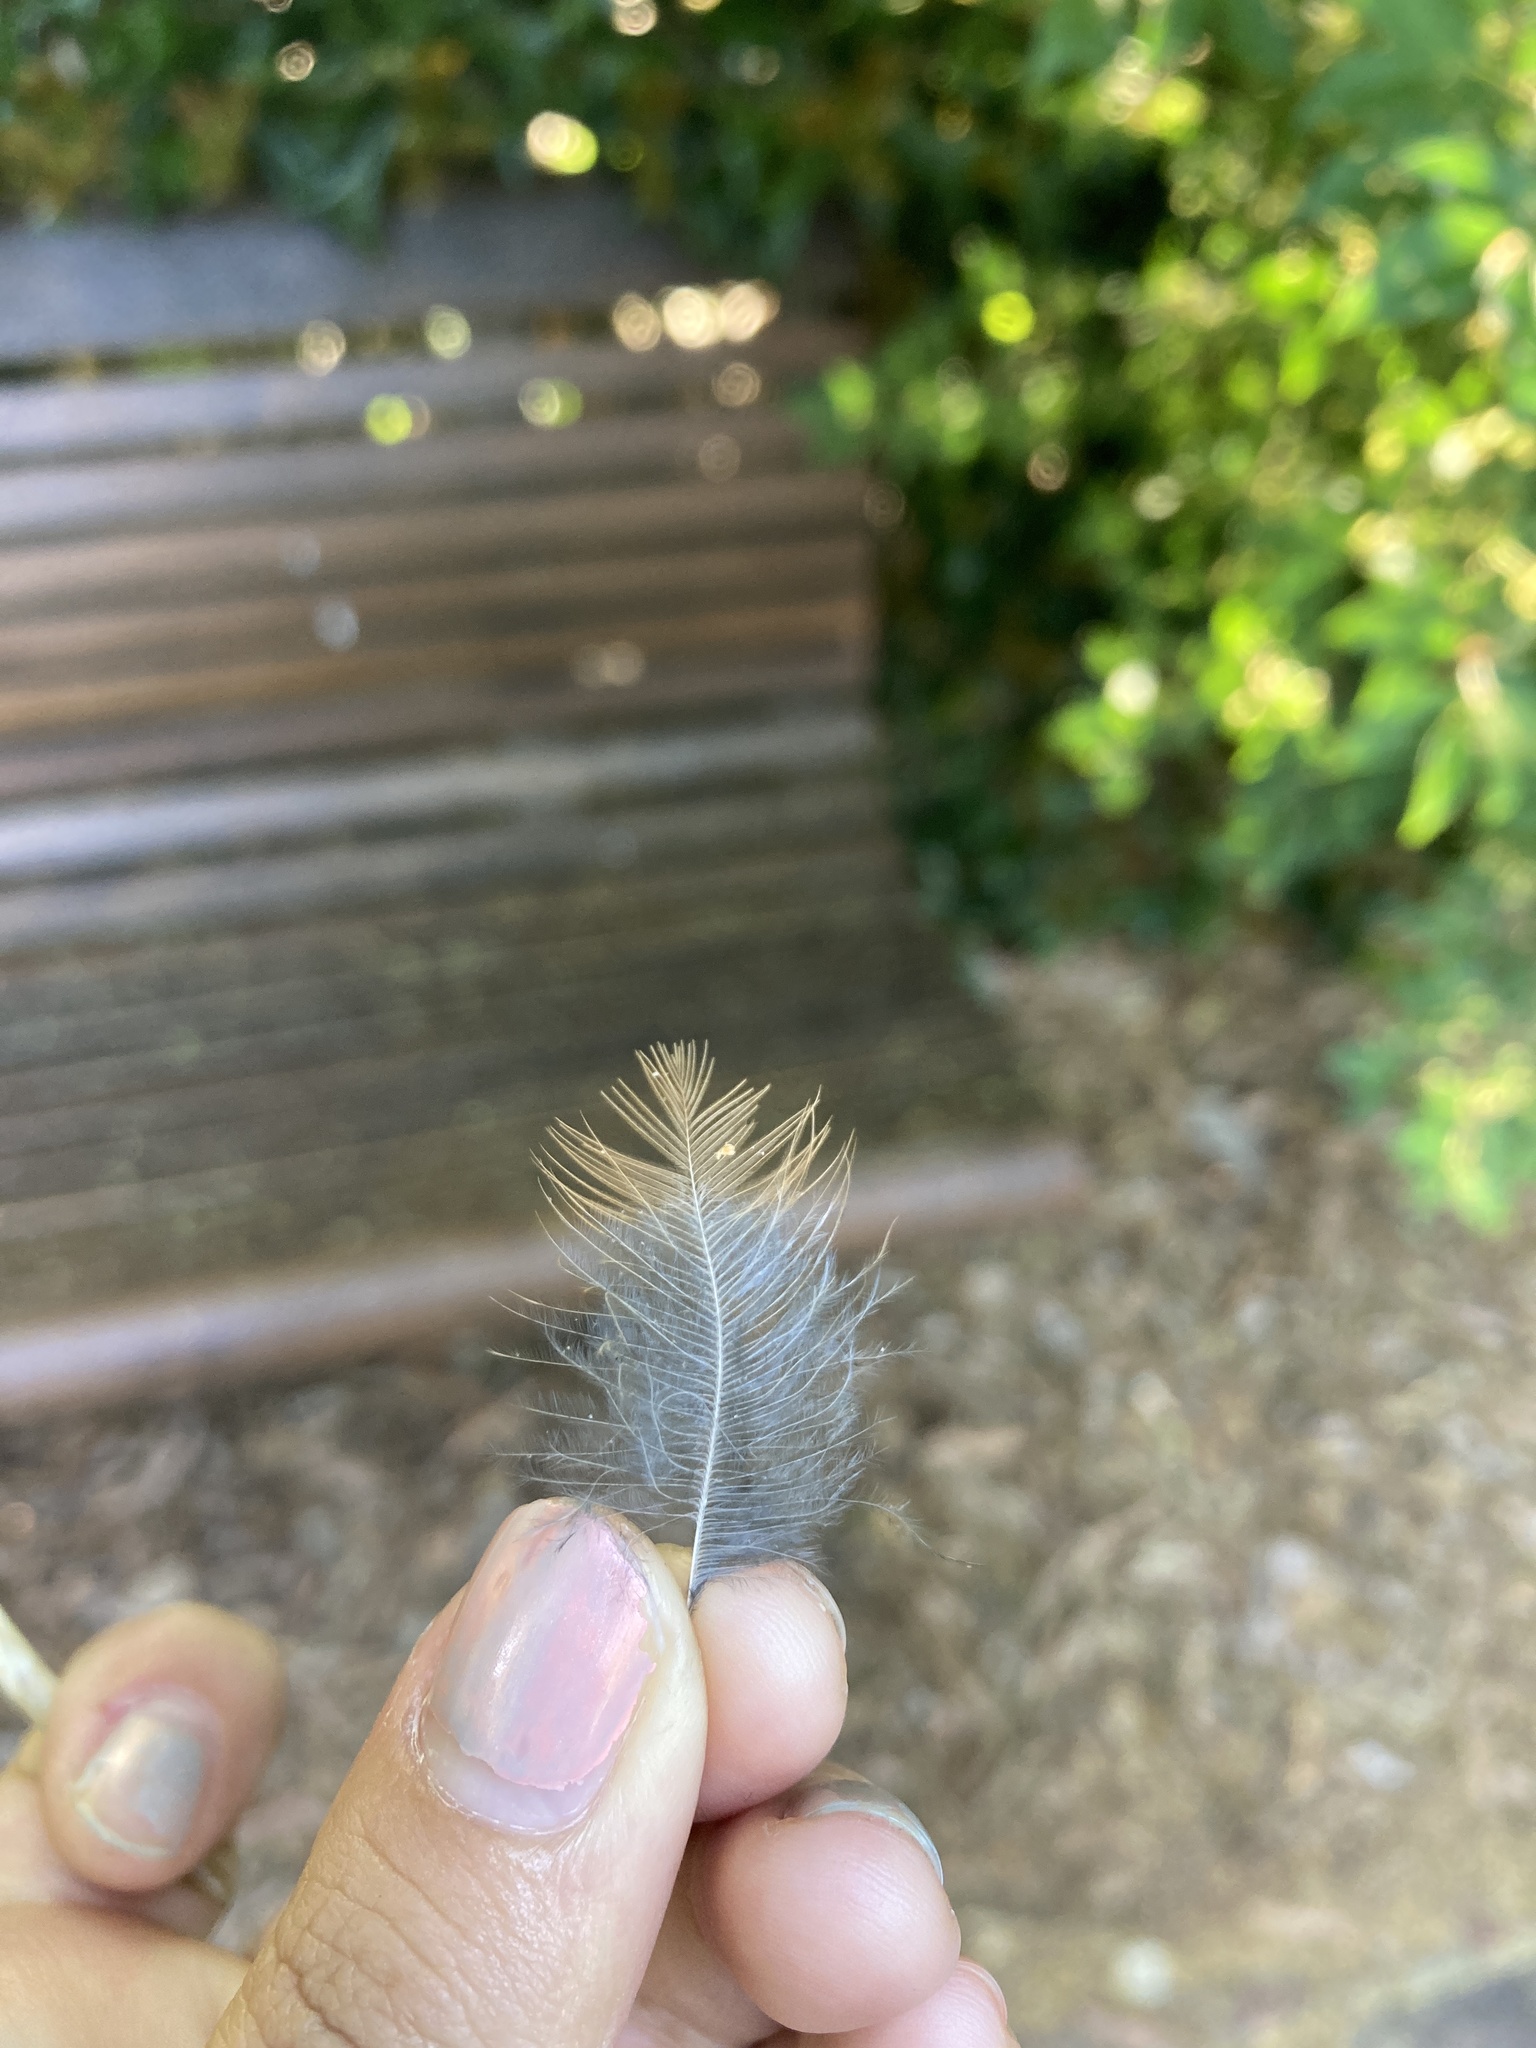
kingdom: Animalia
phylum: Chordata
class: Aves
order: Passeriformes
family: Mimidae
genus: Toxostoma
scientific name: Toxostoma rufum
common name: Brown thrasher
